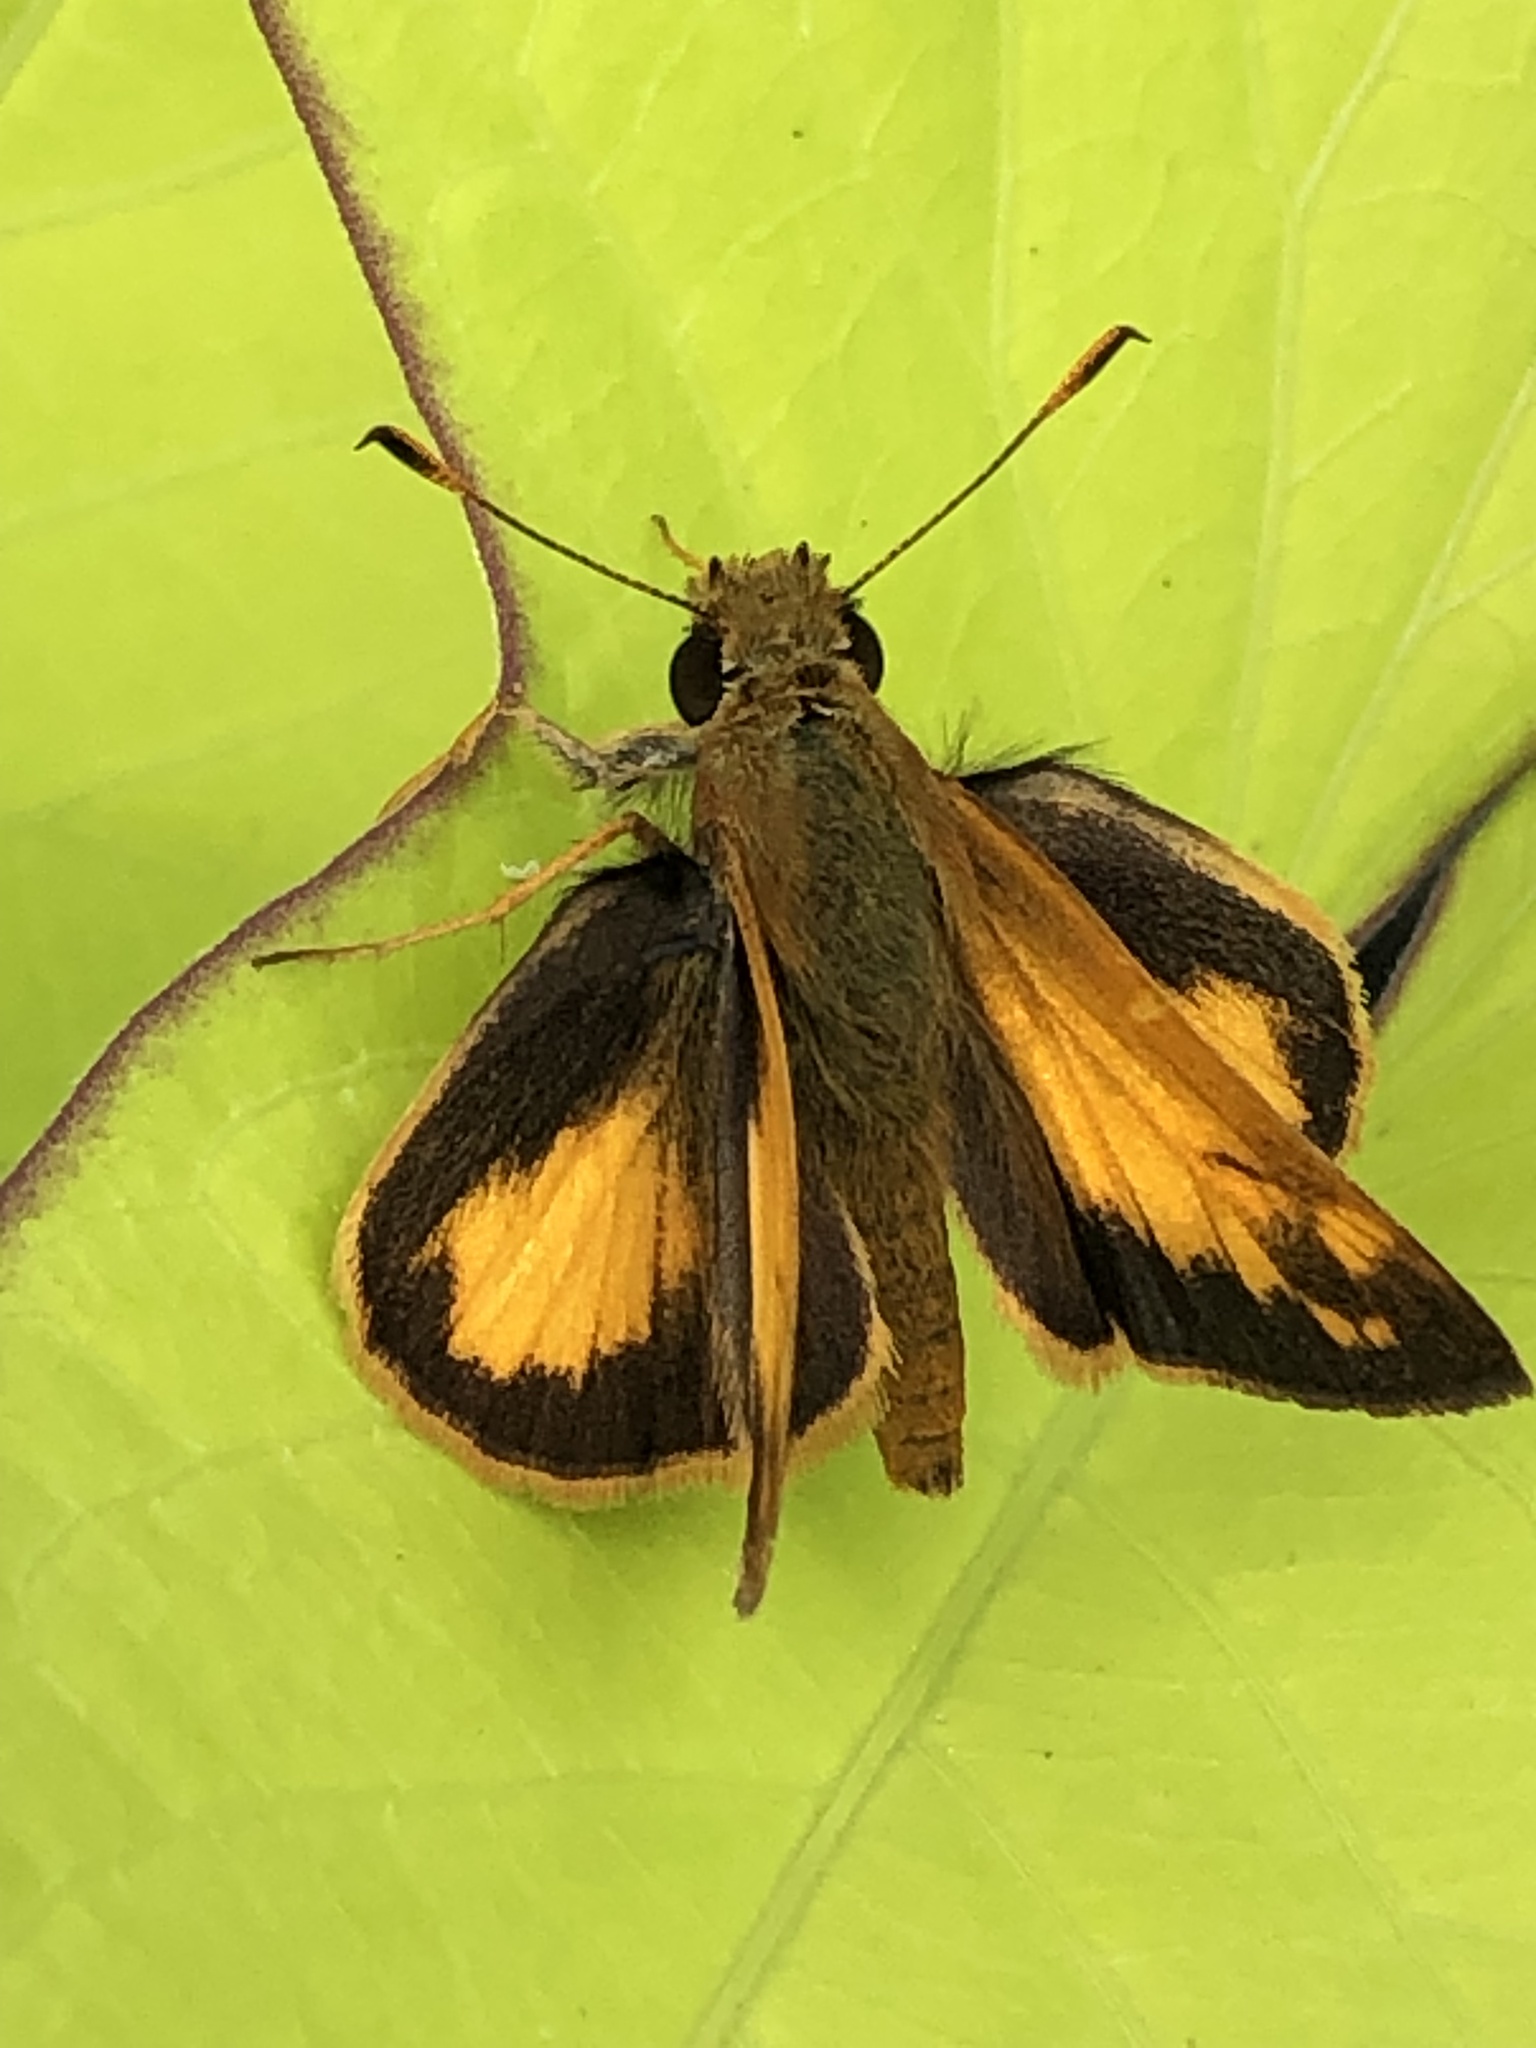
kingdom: Animalia
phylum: Arthropoda
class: Insecta
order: Lepidoptera
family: Hesperiidae
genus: Lon
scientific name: Lon zabulon
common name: Zabulon skipper
